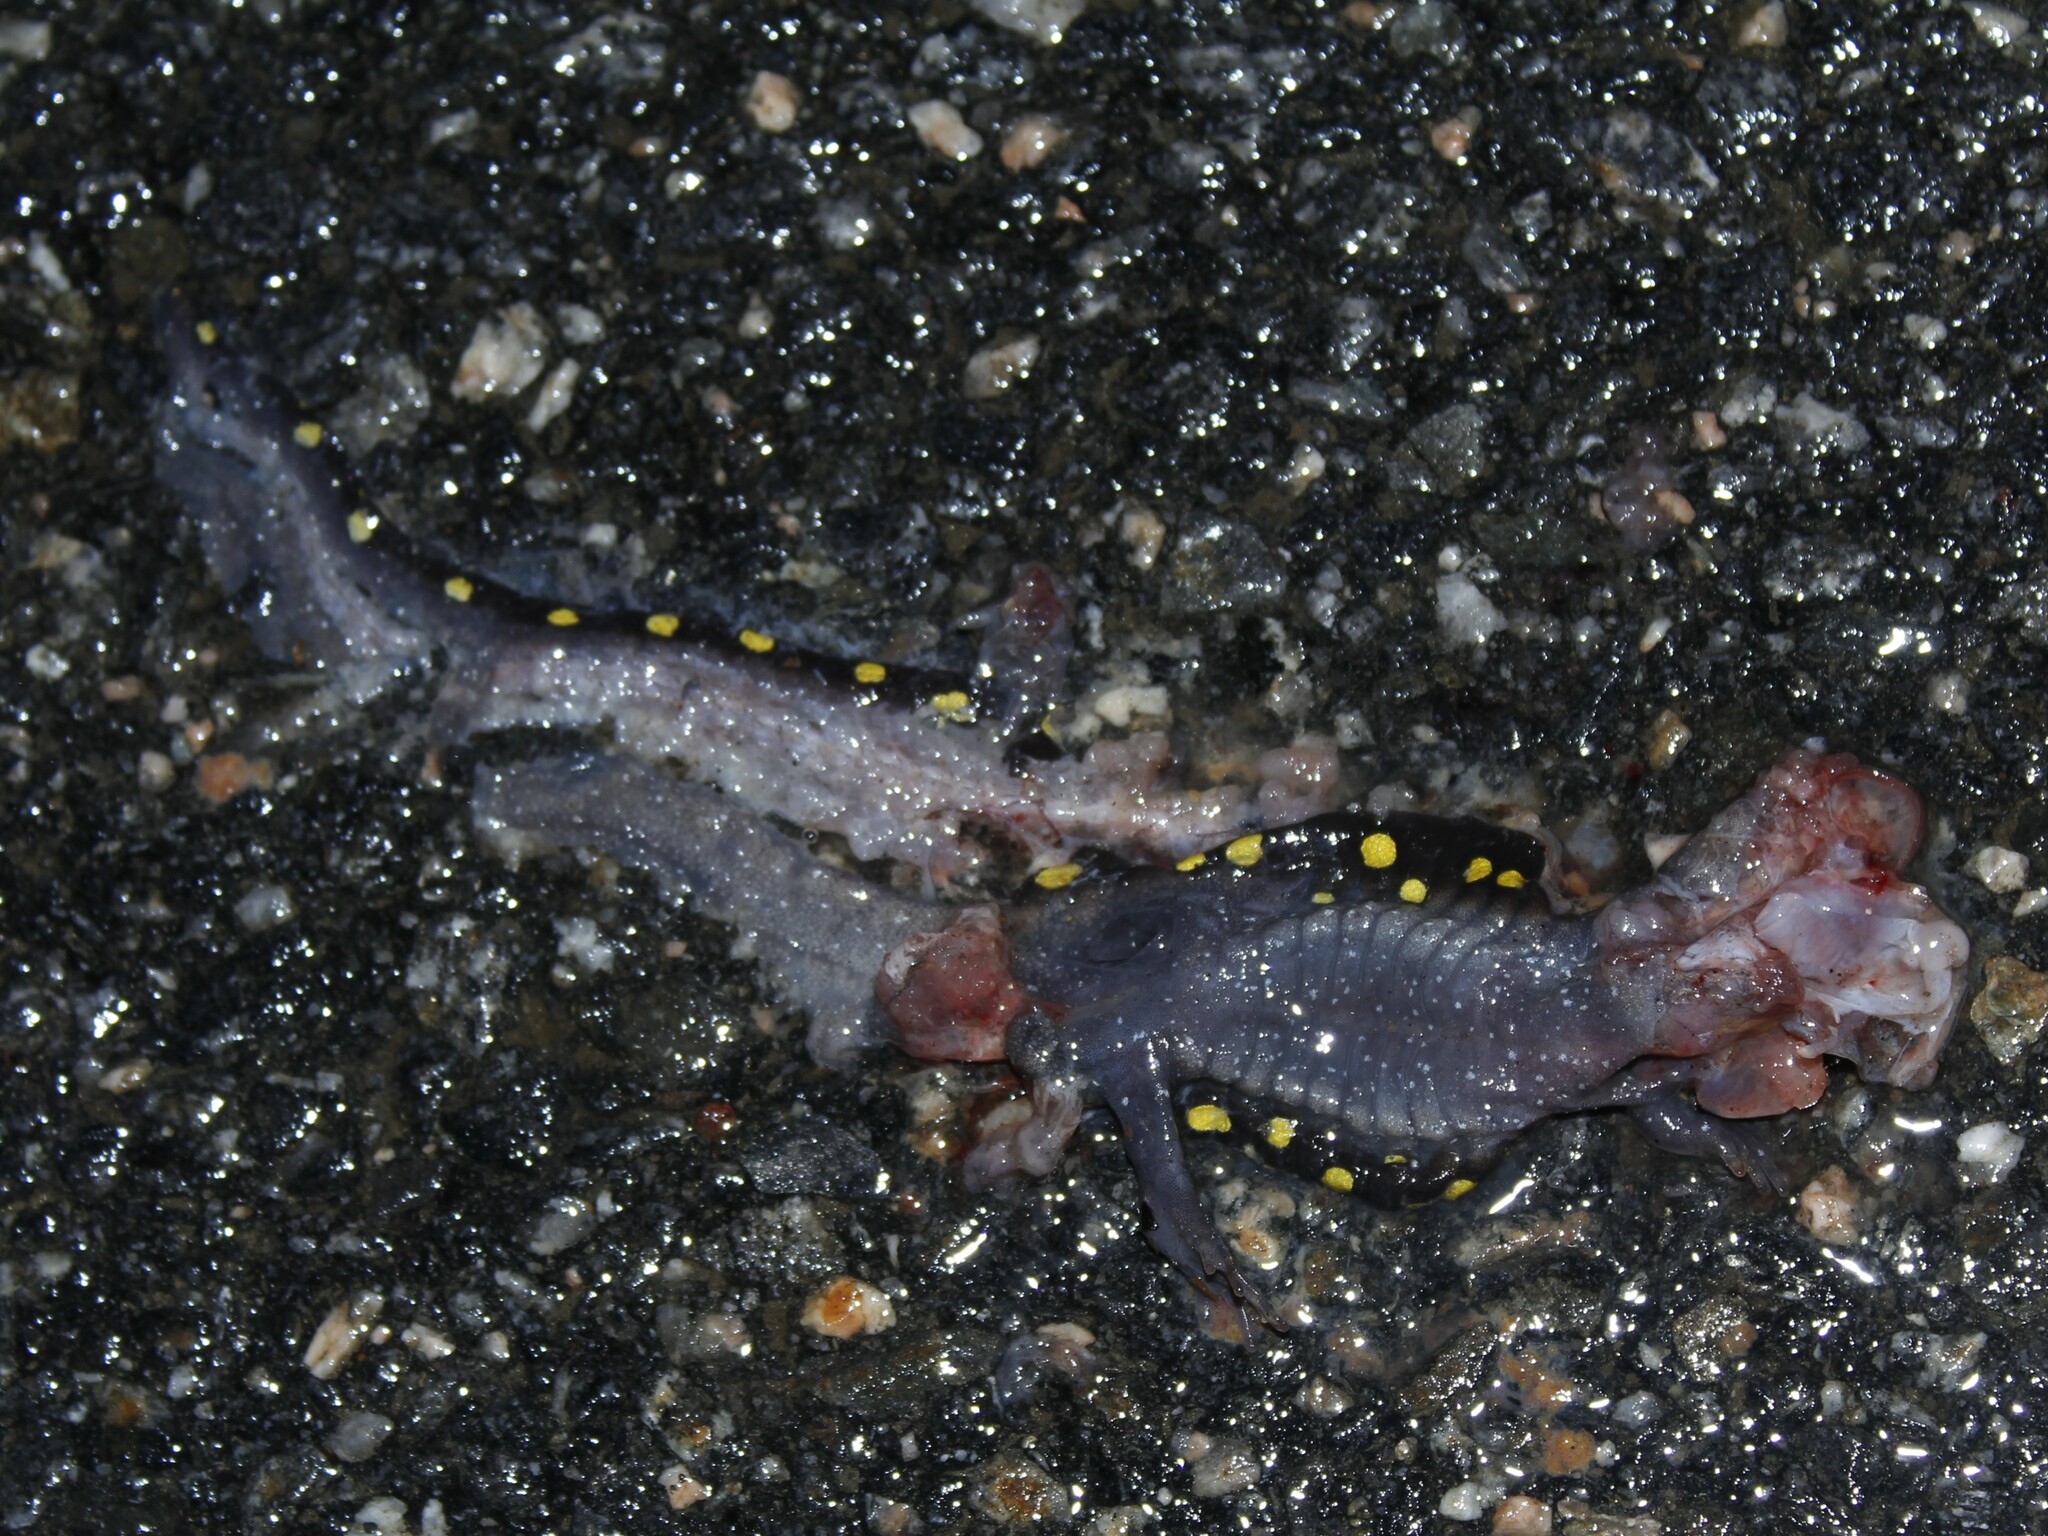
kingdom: Animalia
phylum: Chordata
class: Amphibia
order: Caudata
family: Ambystomatidae
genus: Ambystoma
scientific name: Ambystoma maculatum
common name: Spotted salamander
